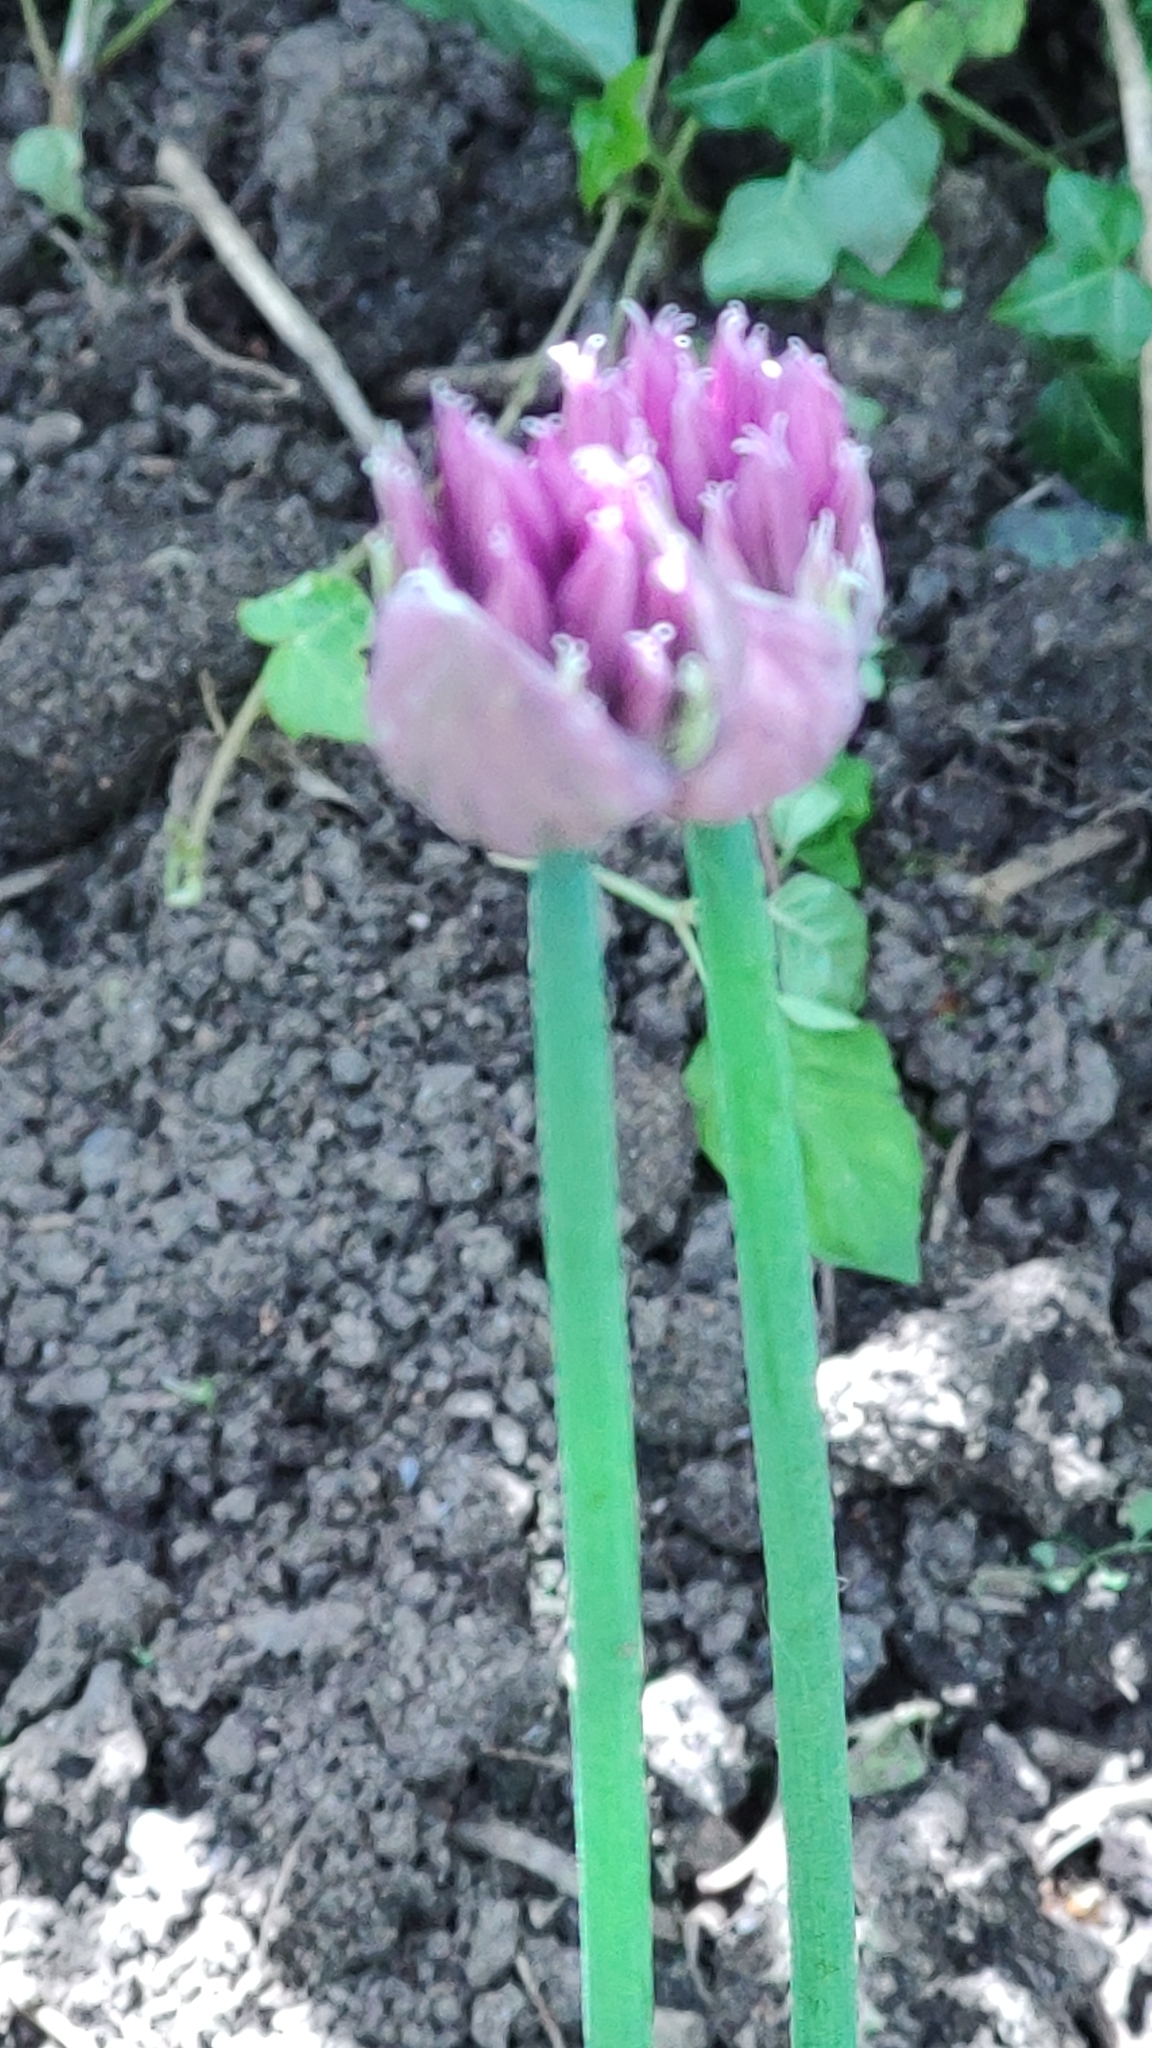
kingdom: Plantae
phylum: Tracheophyta
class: Liliopsida
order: Asparagales
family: Amaryllidaceae
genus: Allium
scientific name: Allium schoenoprasum
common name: Chives
